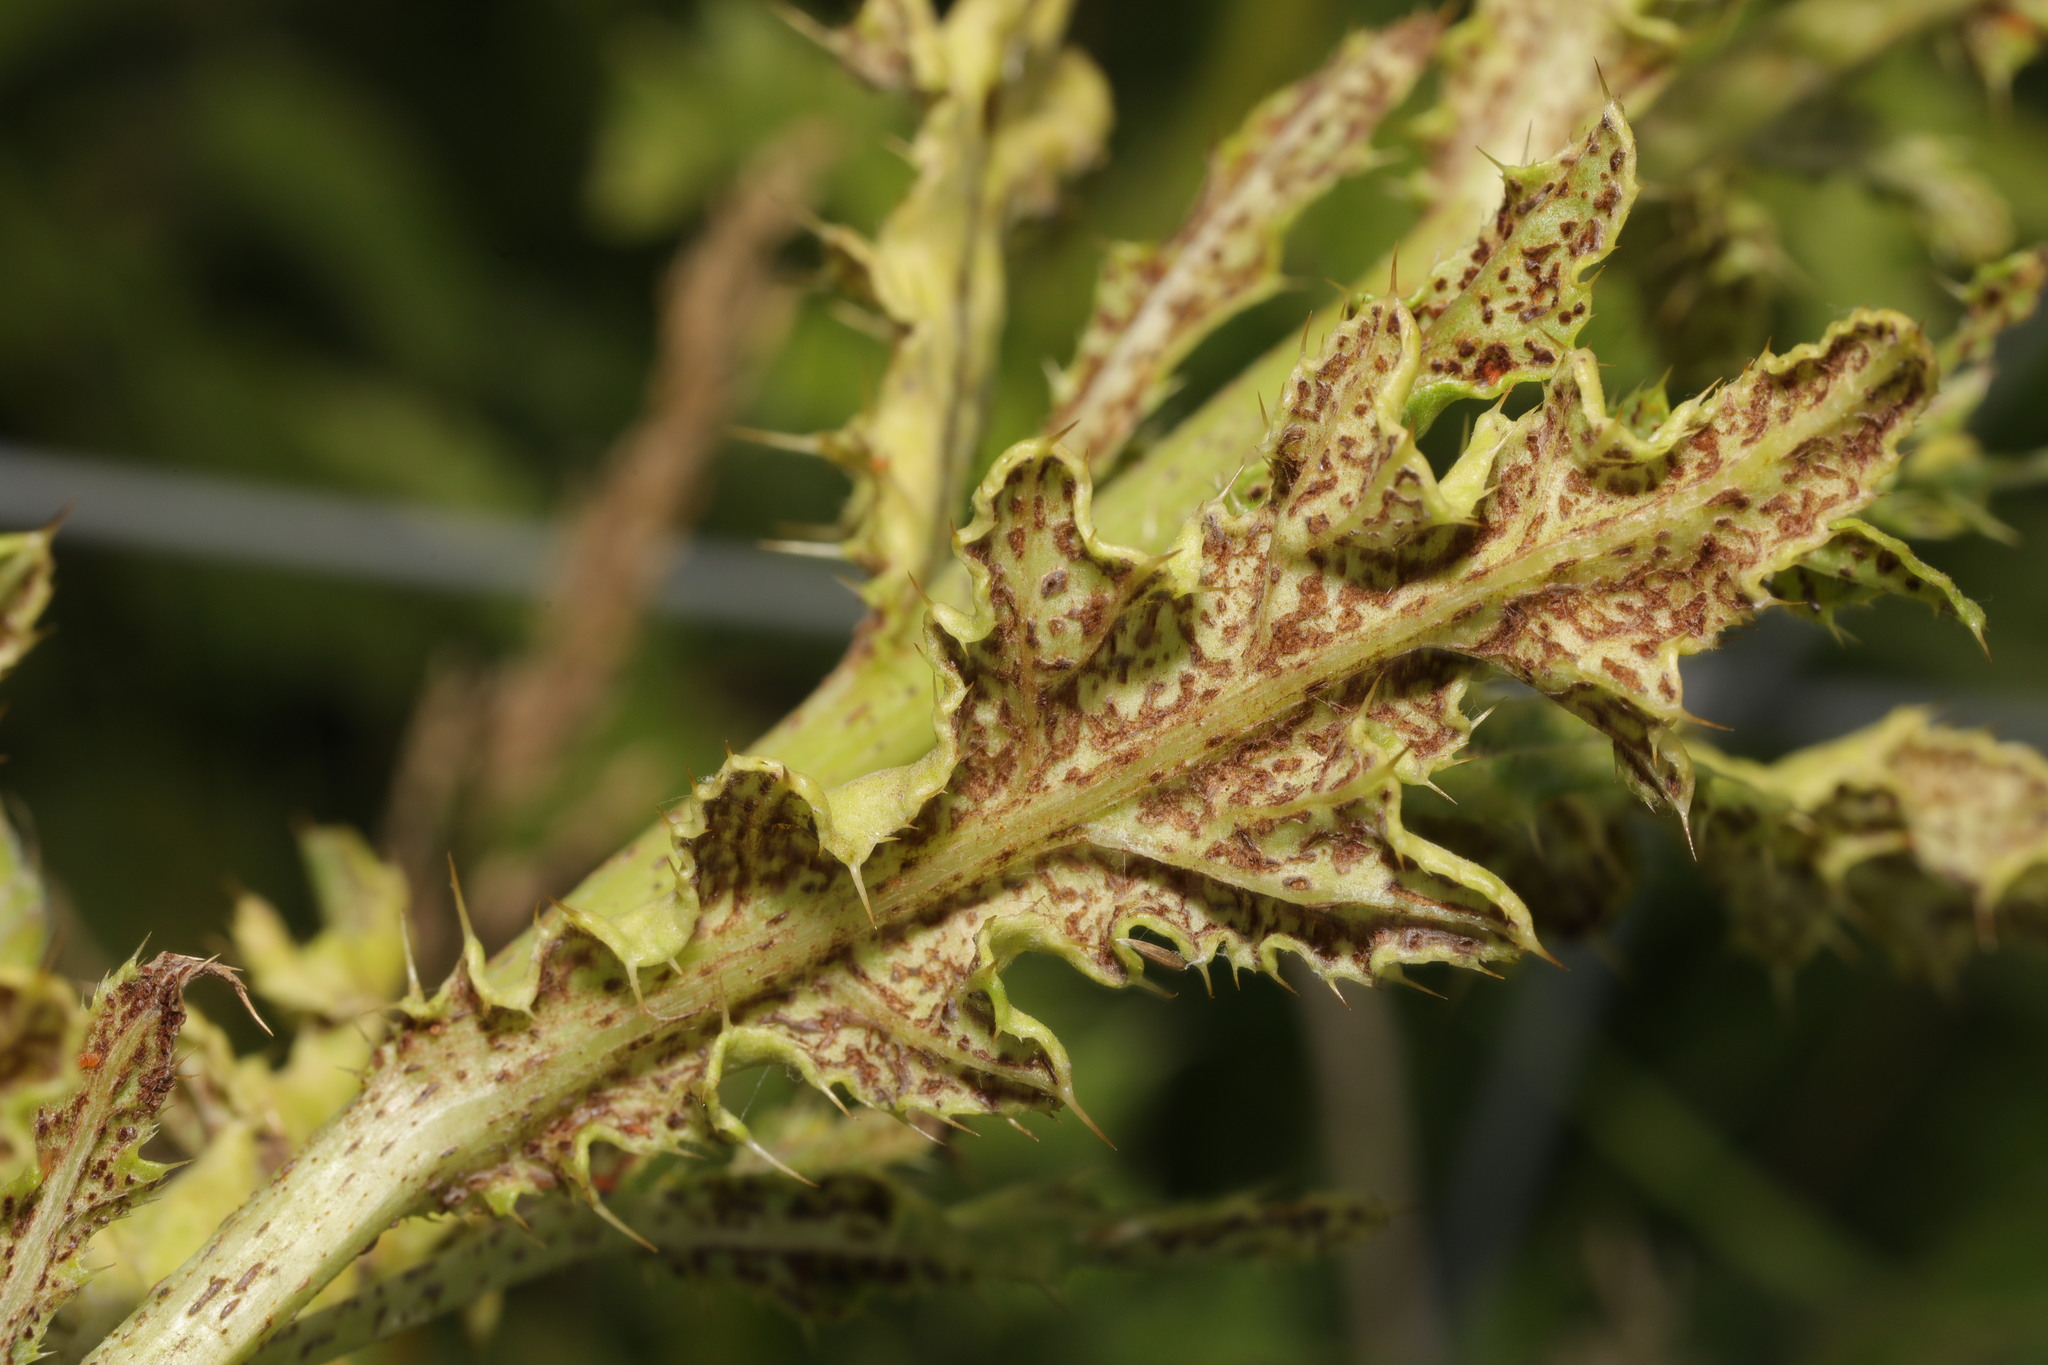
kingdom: Fungi
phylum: Basidiomycota
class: Pucciniomycetes
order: Pucciniales
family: Pucciniaceae
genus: Puccinia
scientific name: Puccinia suaveolens
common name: Thistle rust
